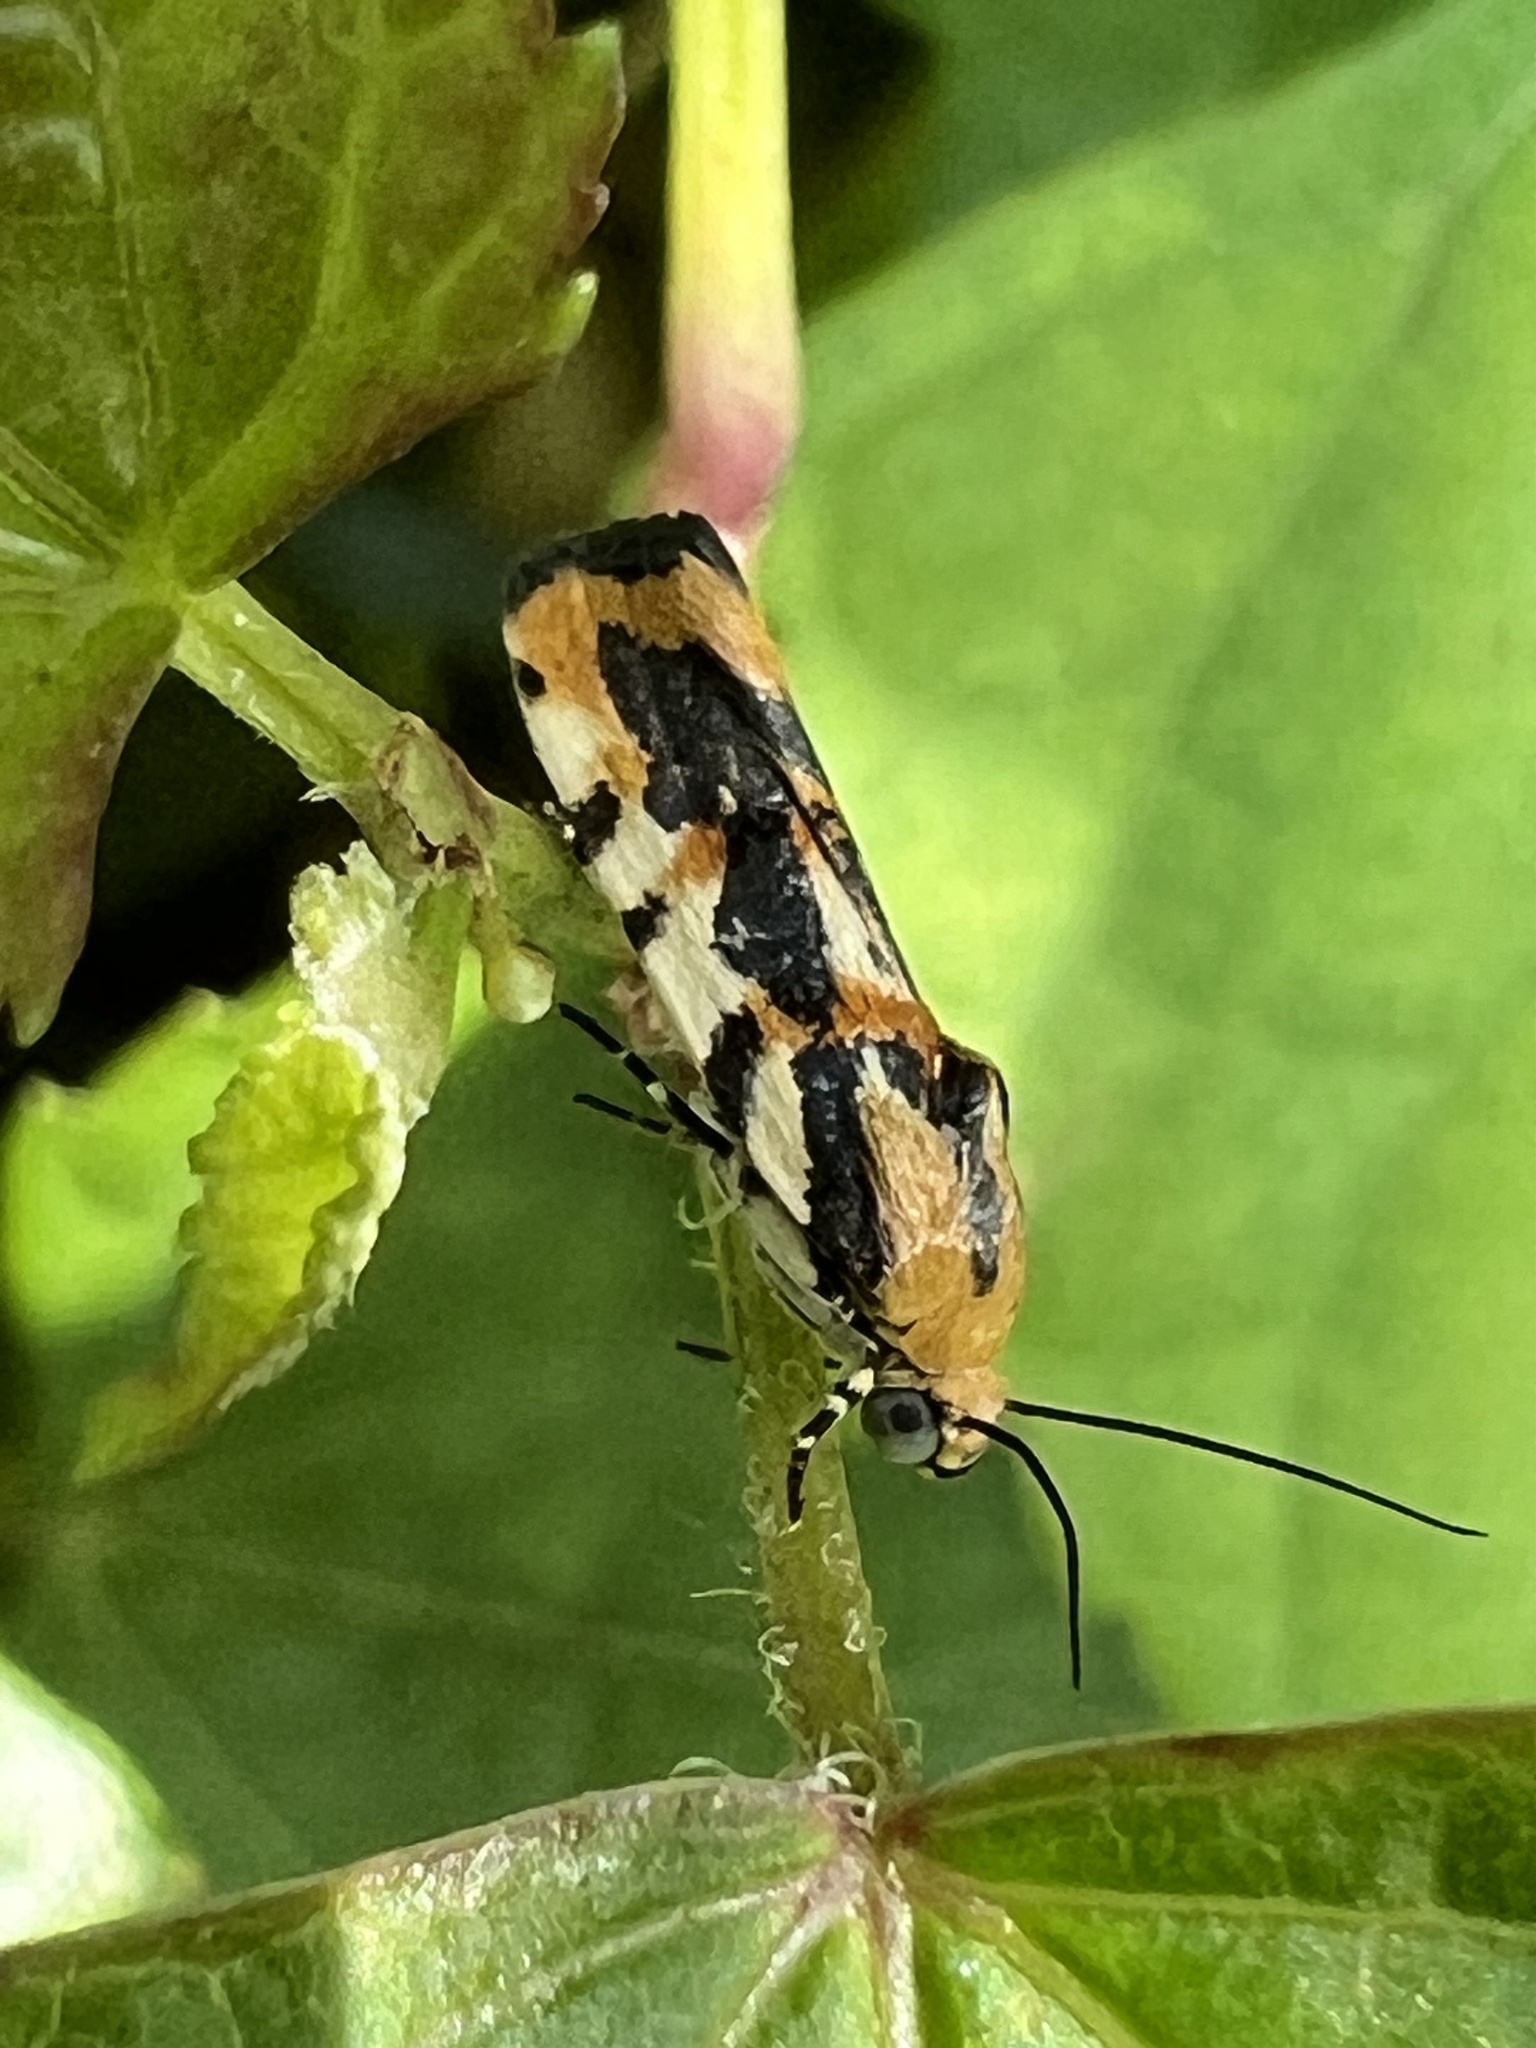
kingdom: Animalia
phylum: Arthropoda
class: Insecta
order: Lepidoptera
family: Noctuidae
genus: Acontia
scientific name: Acontia leo
